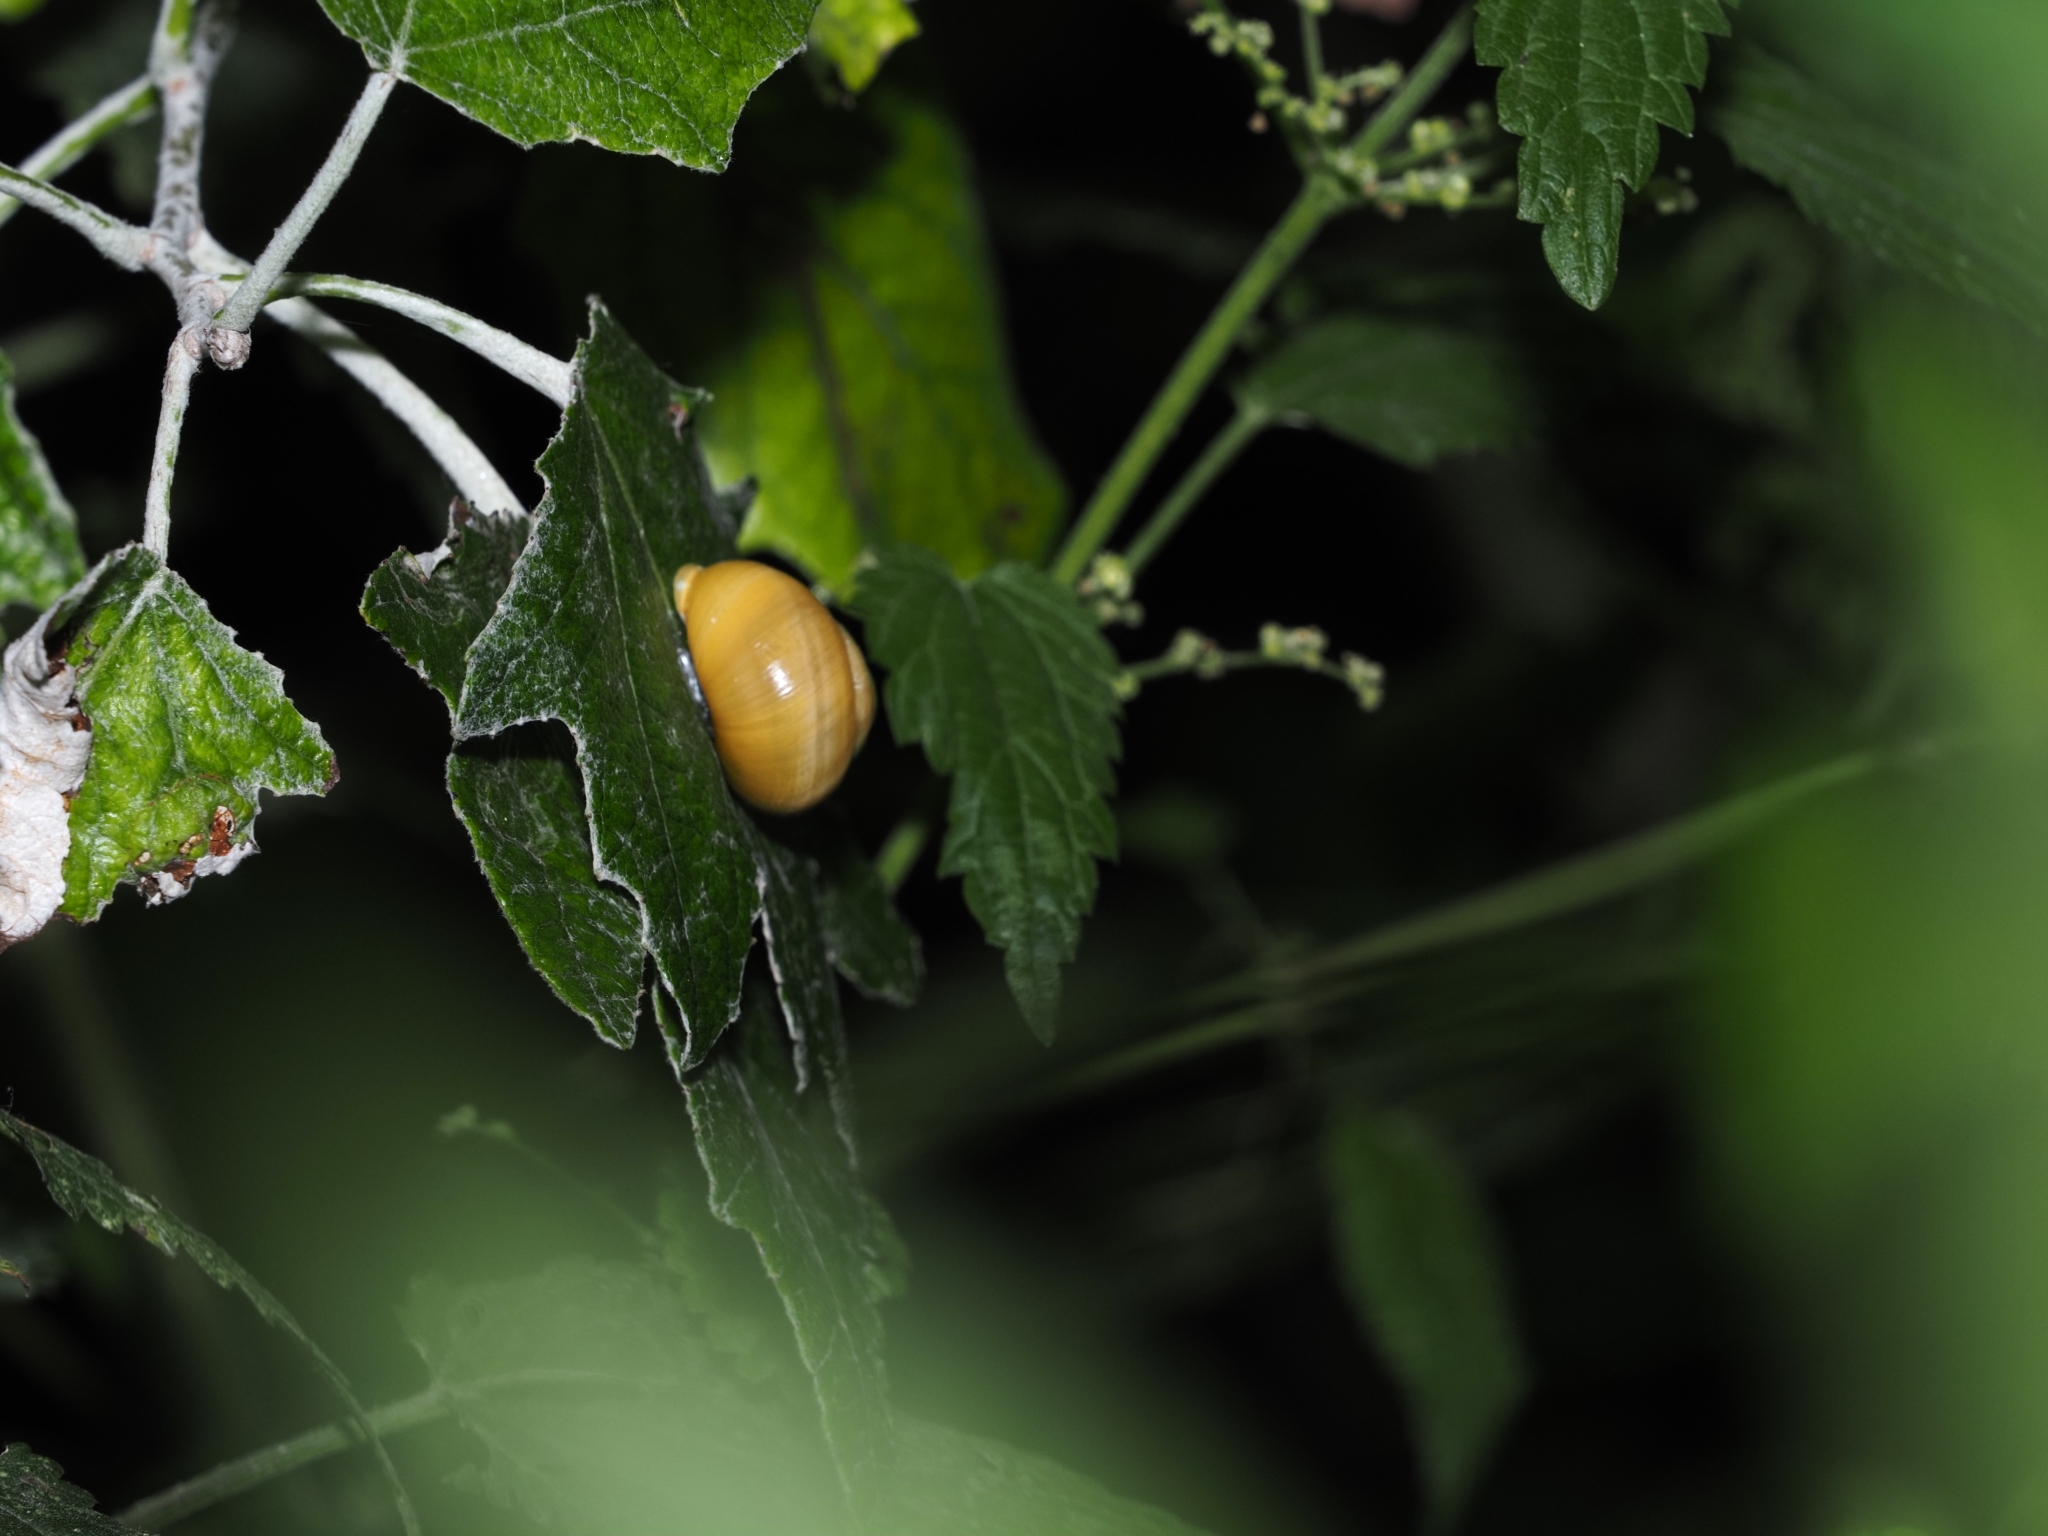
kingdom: Animalia
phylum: Mollusca
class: Gastropoda
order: Stylommatophora
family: Helicidae
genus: Cepaea
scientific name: Cepaea hortensis
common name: White-lip gardensnail
